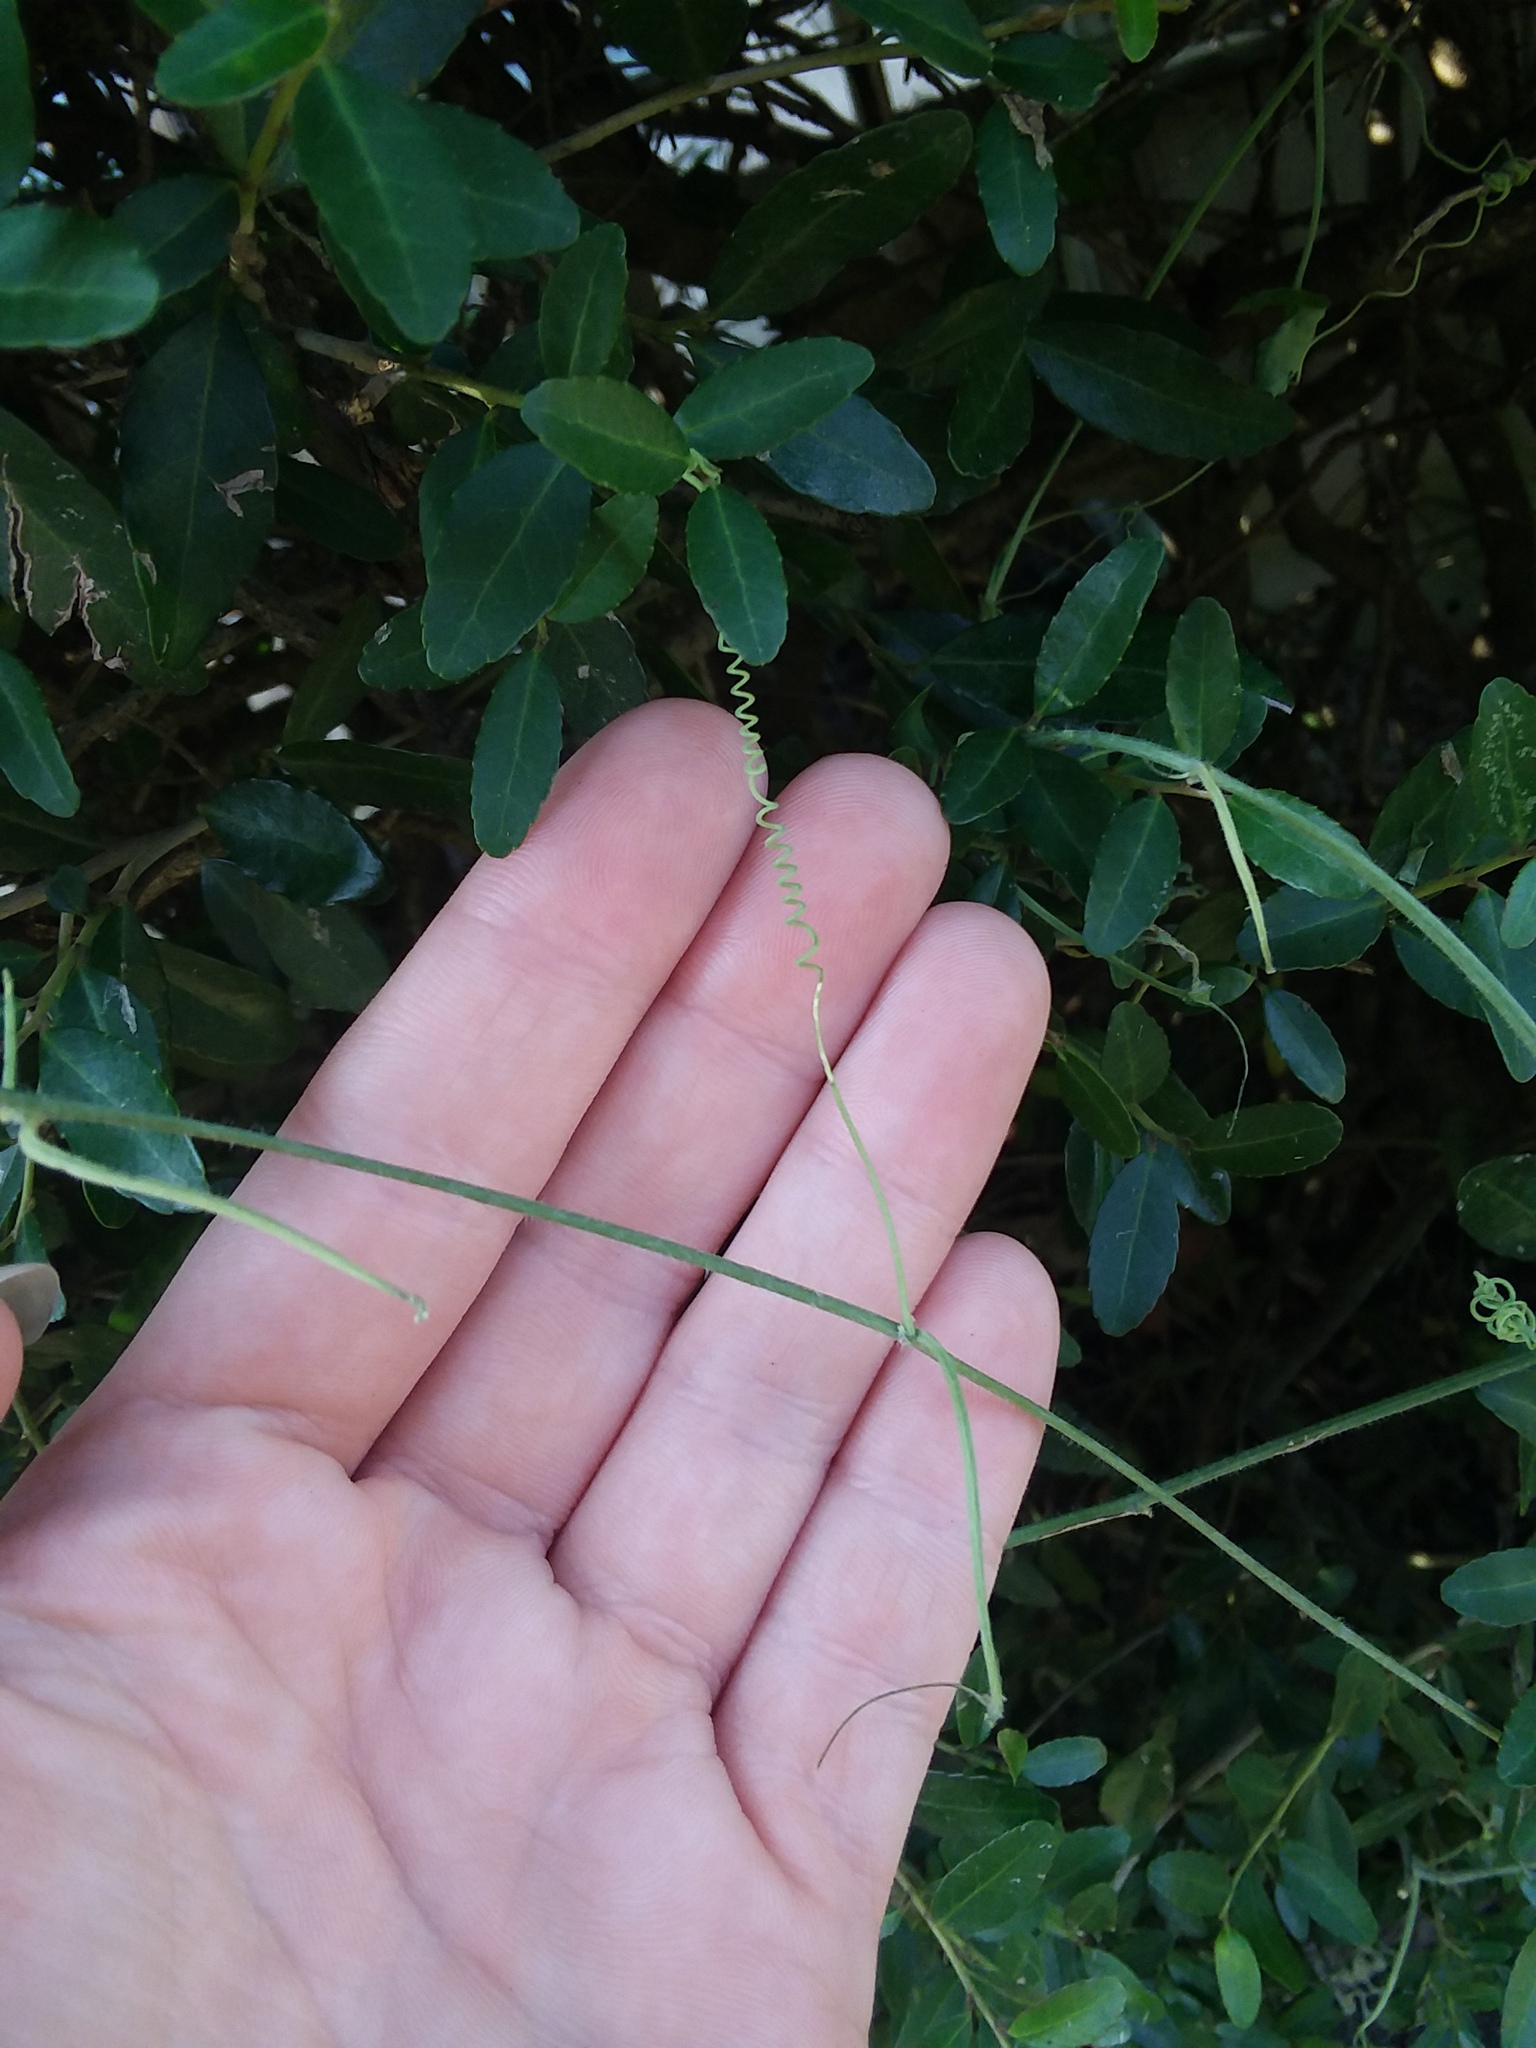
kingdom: Plantae
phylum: Tracheophyta
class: Magnoliopsida
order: Malpighiales
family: Passifloraceae
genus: Passiflora
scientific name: Passiflora lutea
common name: Yellow passionflower
